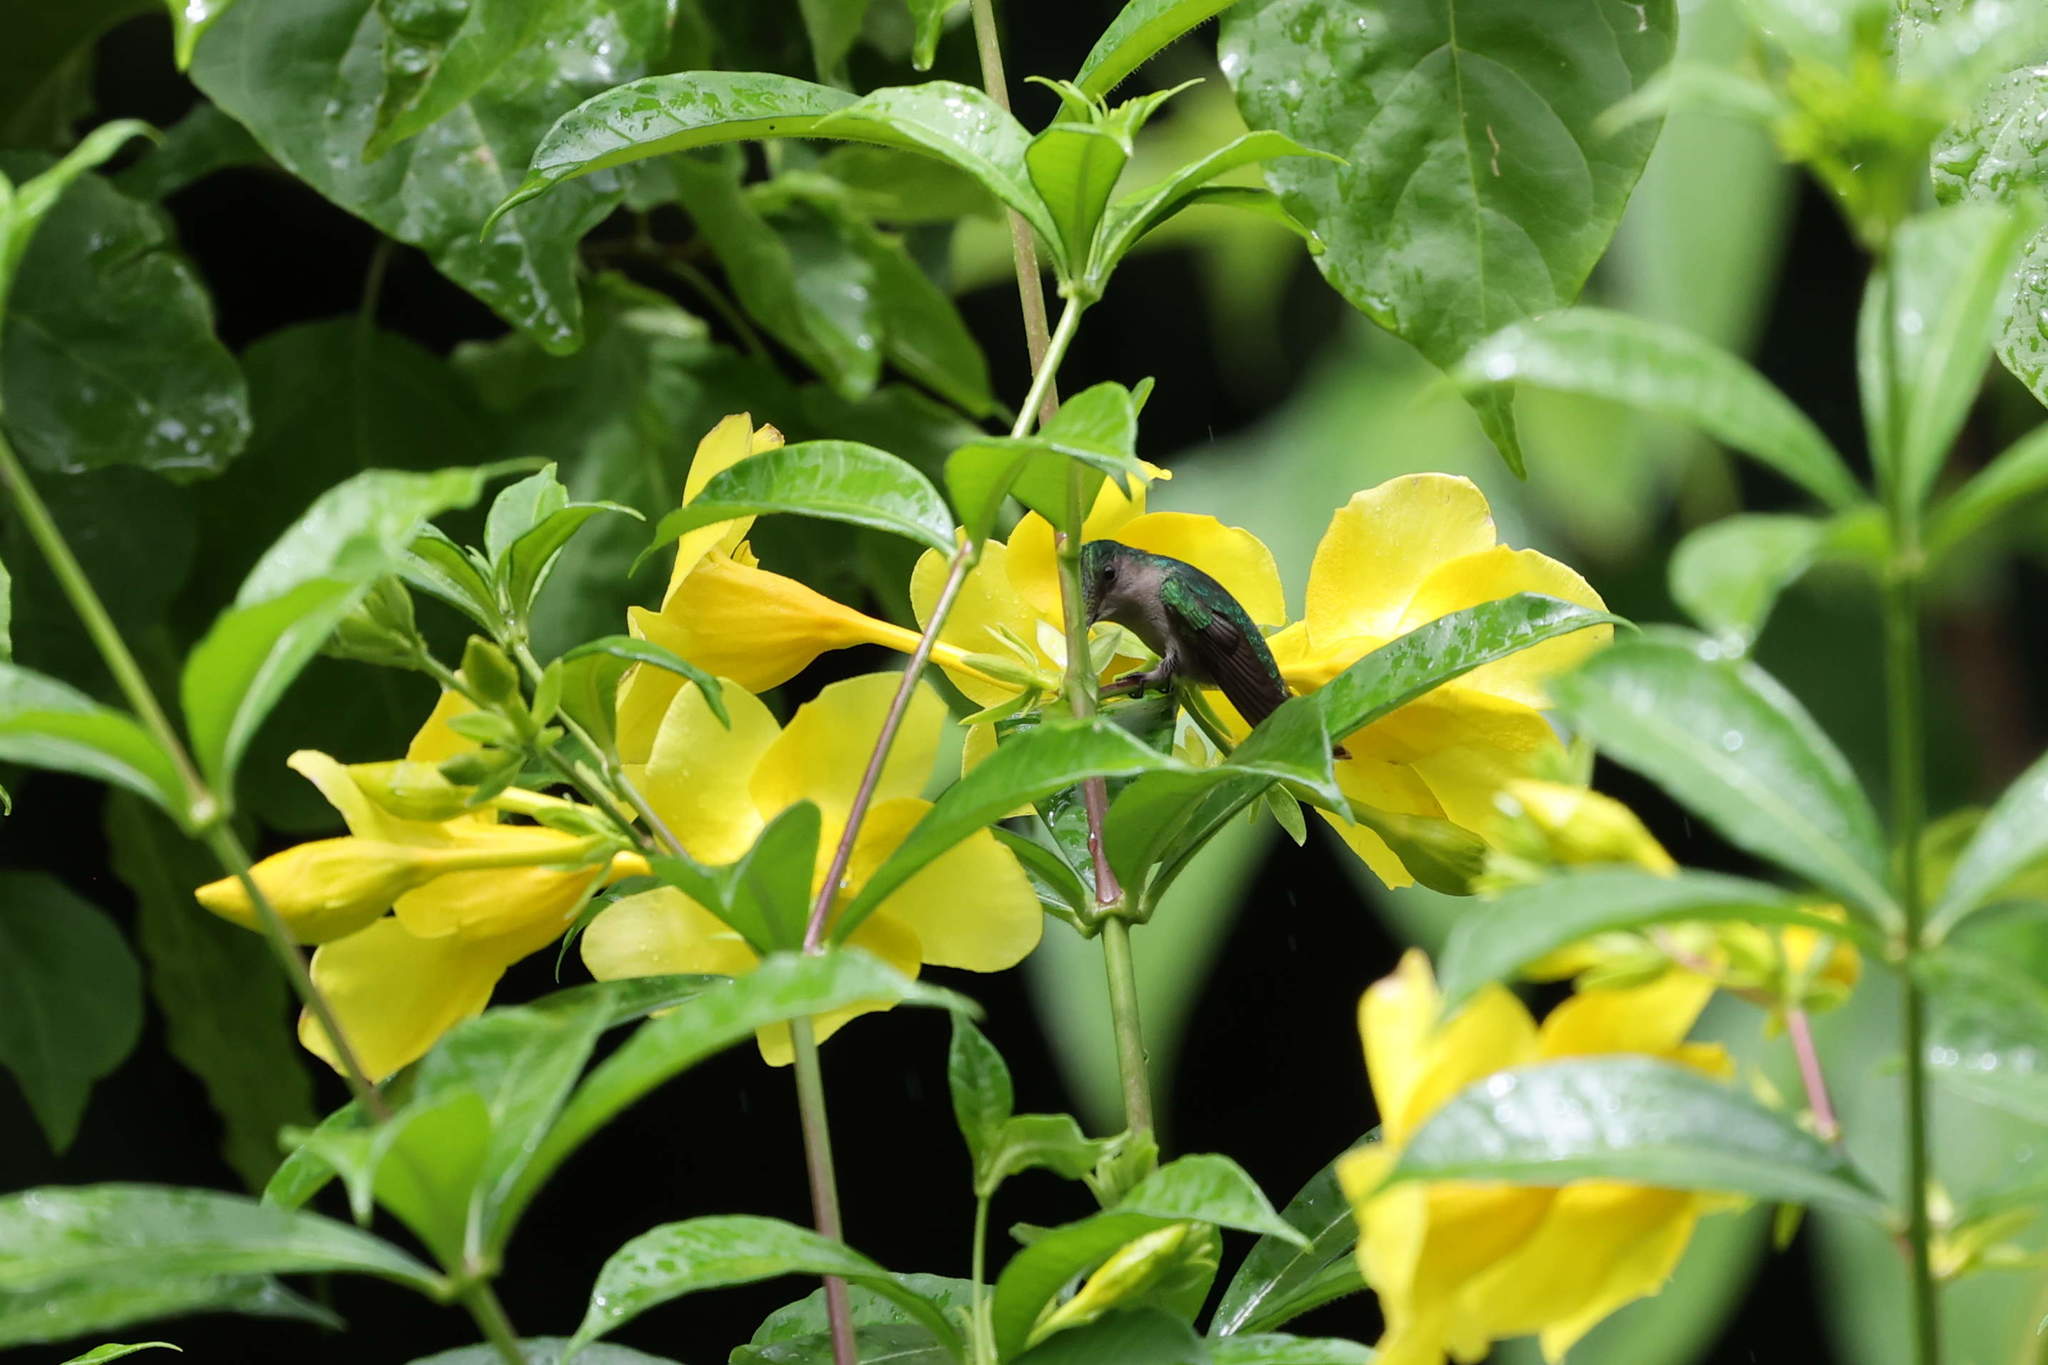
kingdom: Animalia
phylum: Chordata
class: Aves
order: Apodiformes
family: Trochilidae
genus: Orthorhyncus
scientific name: Orthorhyncus cristatus
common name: Antillean crested hummingbird
